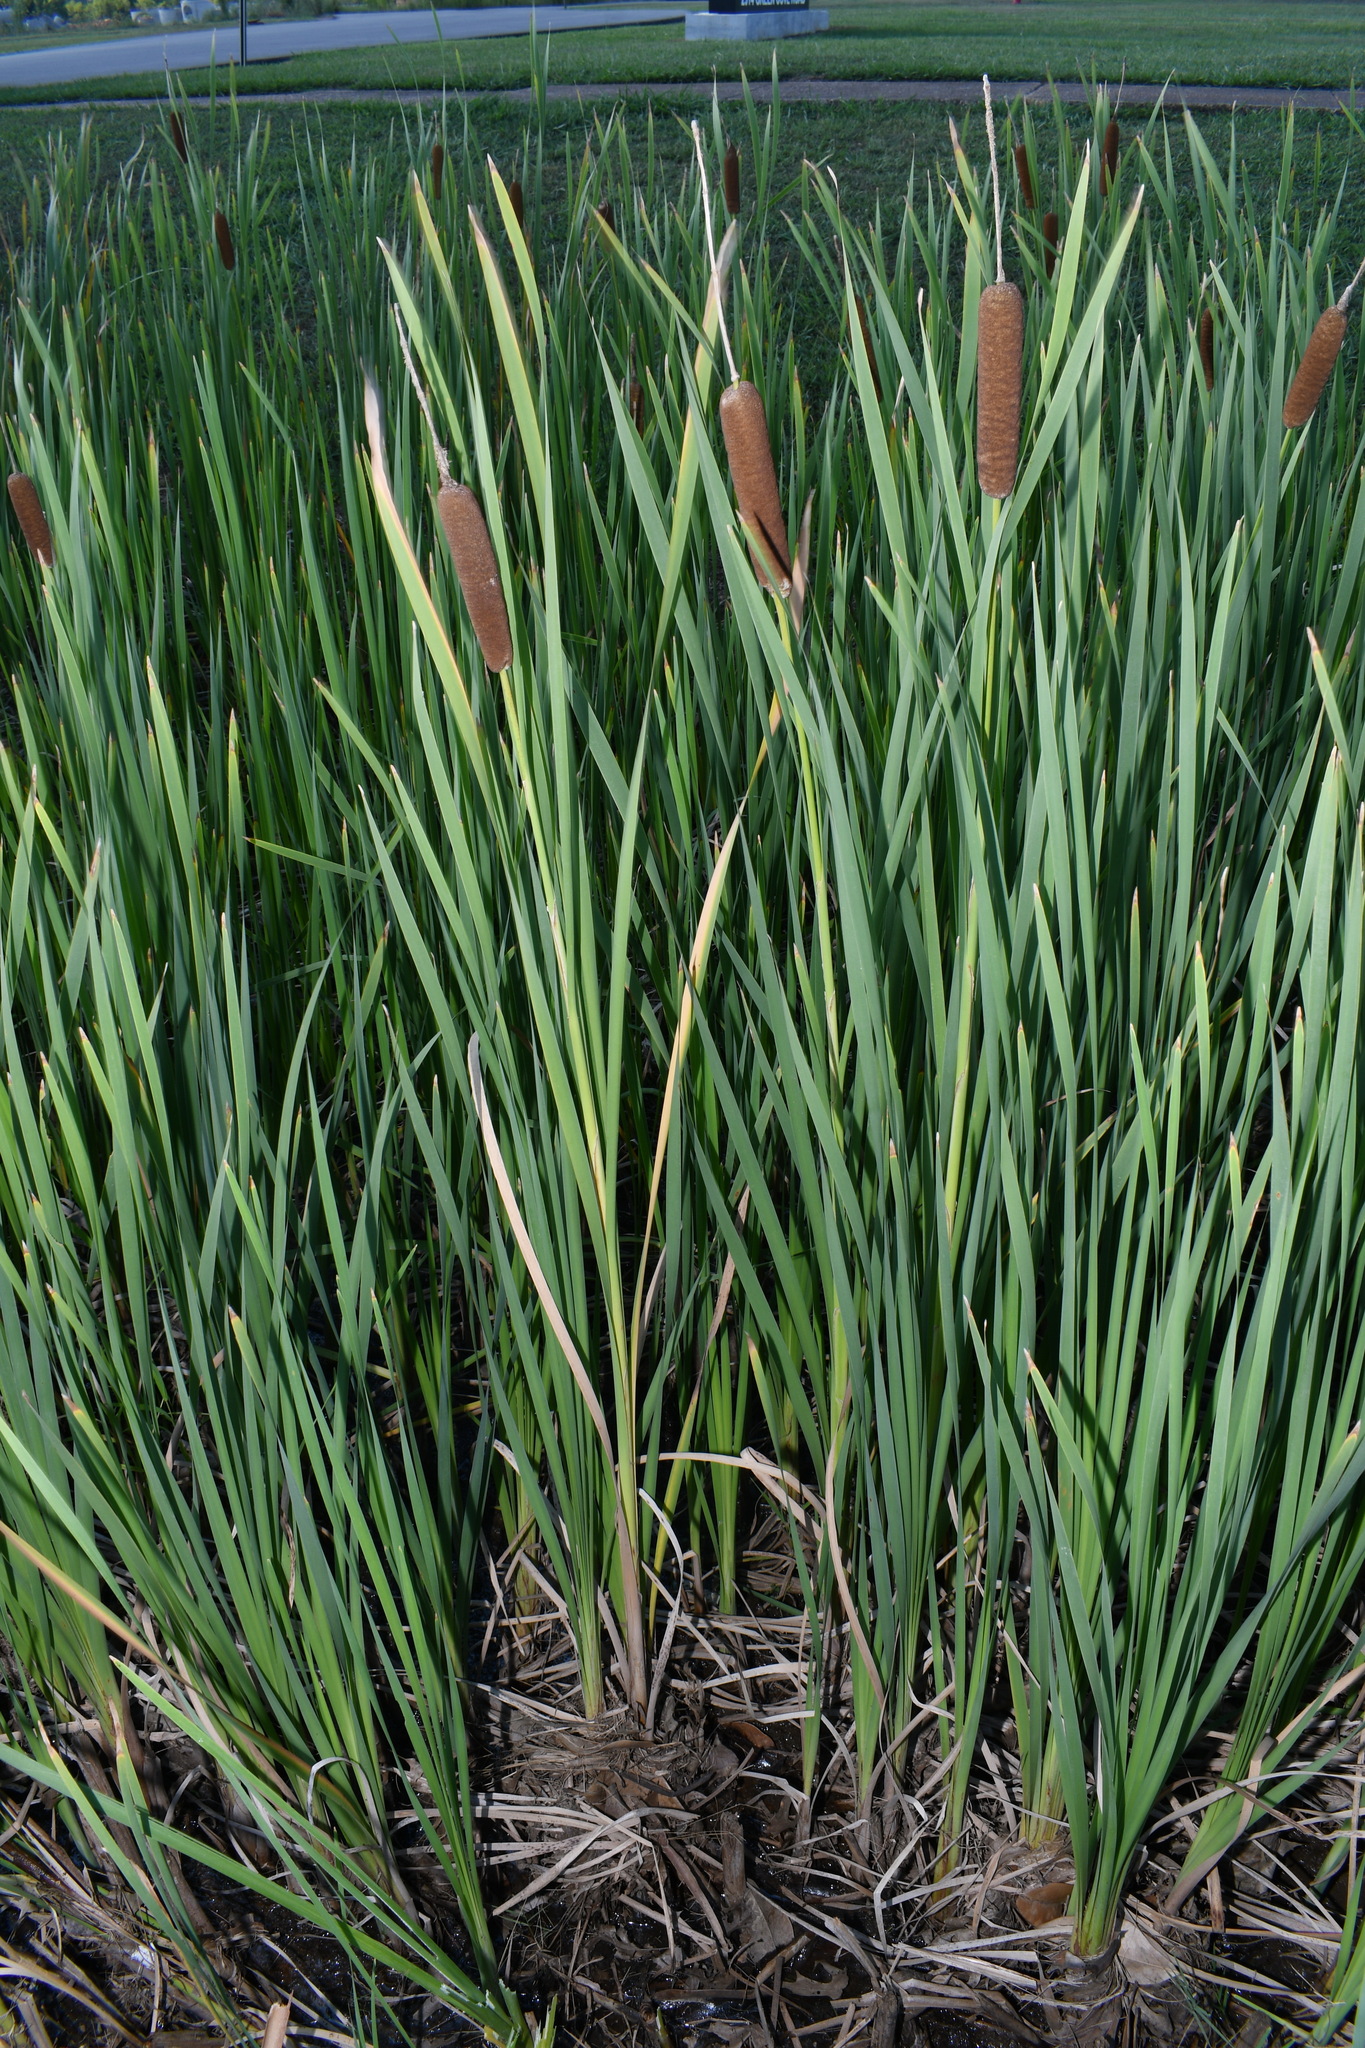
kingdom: Plantae
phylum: Tracheophyta
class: Liliopsida
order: Poales
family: Typhaceae
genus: Typha
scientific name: Typha latifolia
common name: Broadleaf cattail
